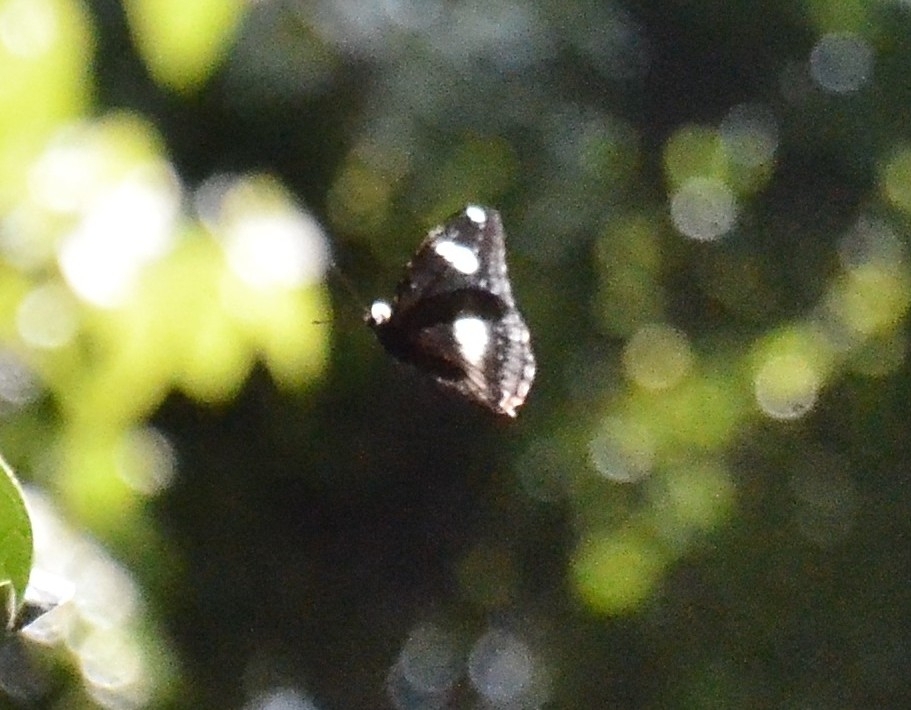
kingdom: Animalia
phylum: Arthropoda
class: Insecta
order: Lepidoptera
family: Nymphalidae
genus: Hypolimnas
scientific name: Hypolimnas bolina
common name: Great eggfly
